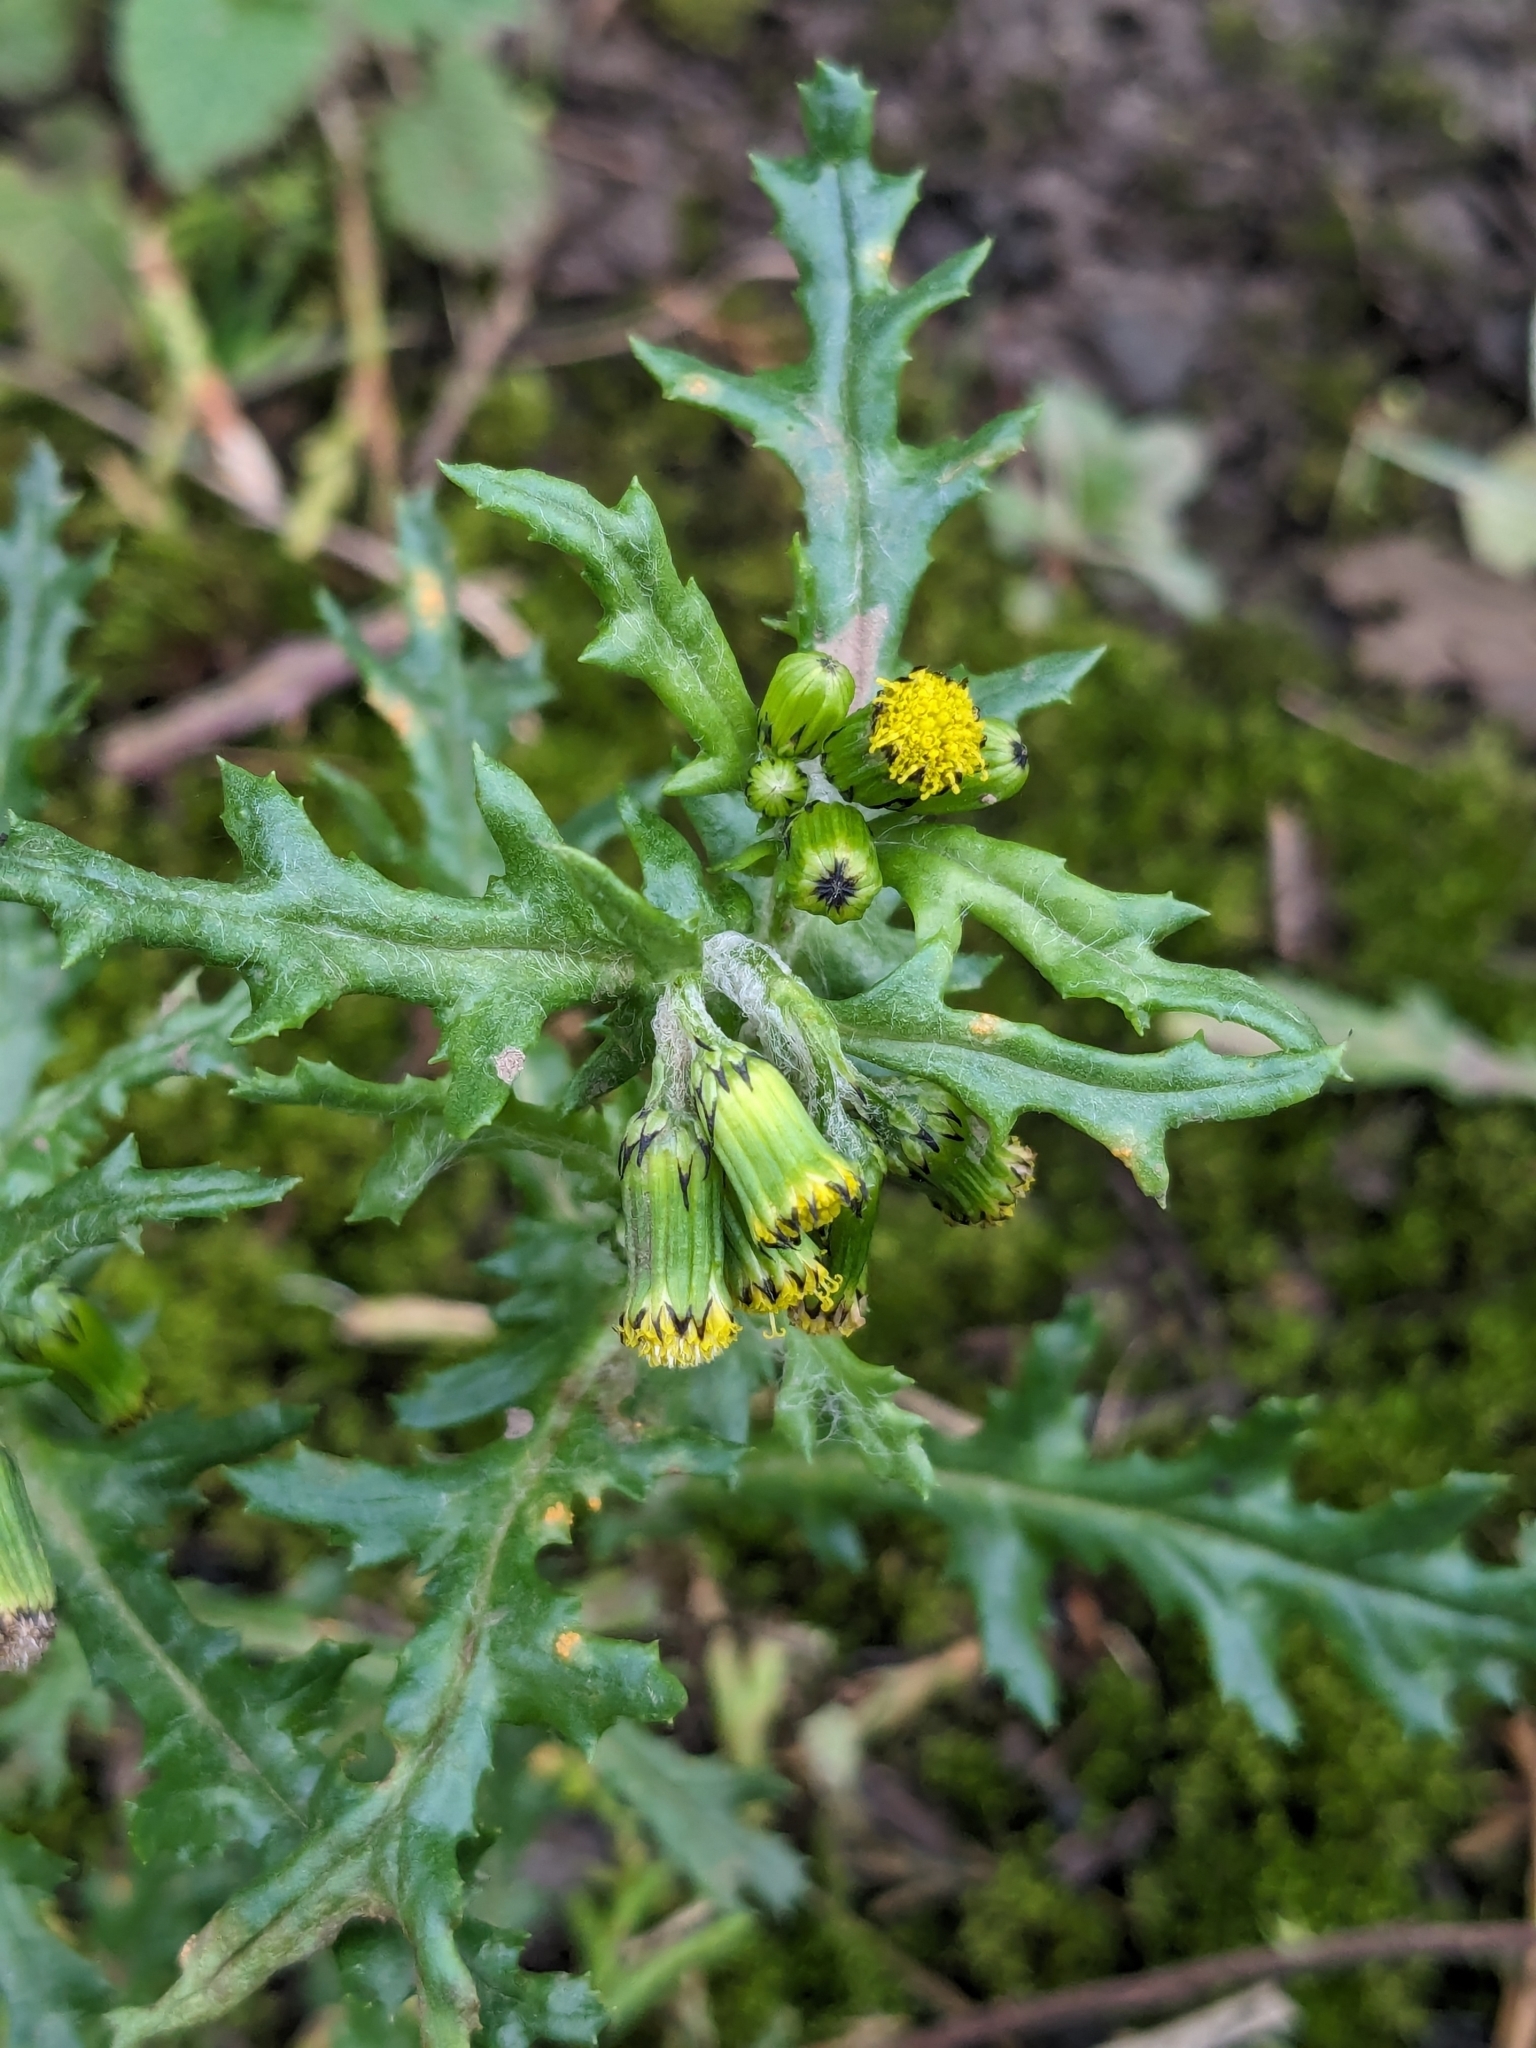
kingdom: Plantae
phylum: Tracheophyta
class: Magnoliopsida
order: Asterales
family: Asteraceae
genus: Senecio
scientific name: Senecio vulgaris
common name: Old-man-in-the-spring
